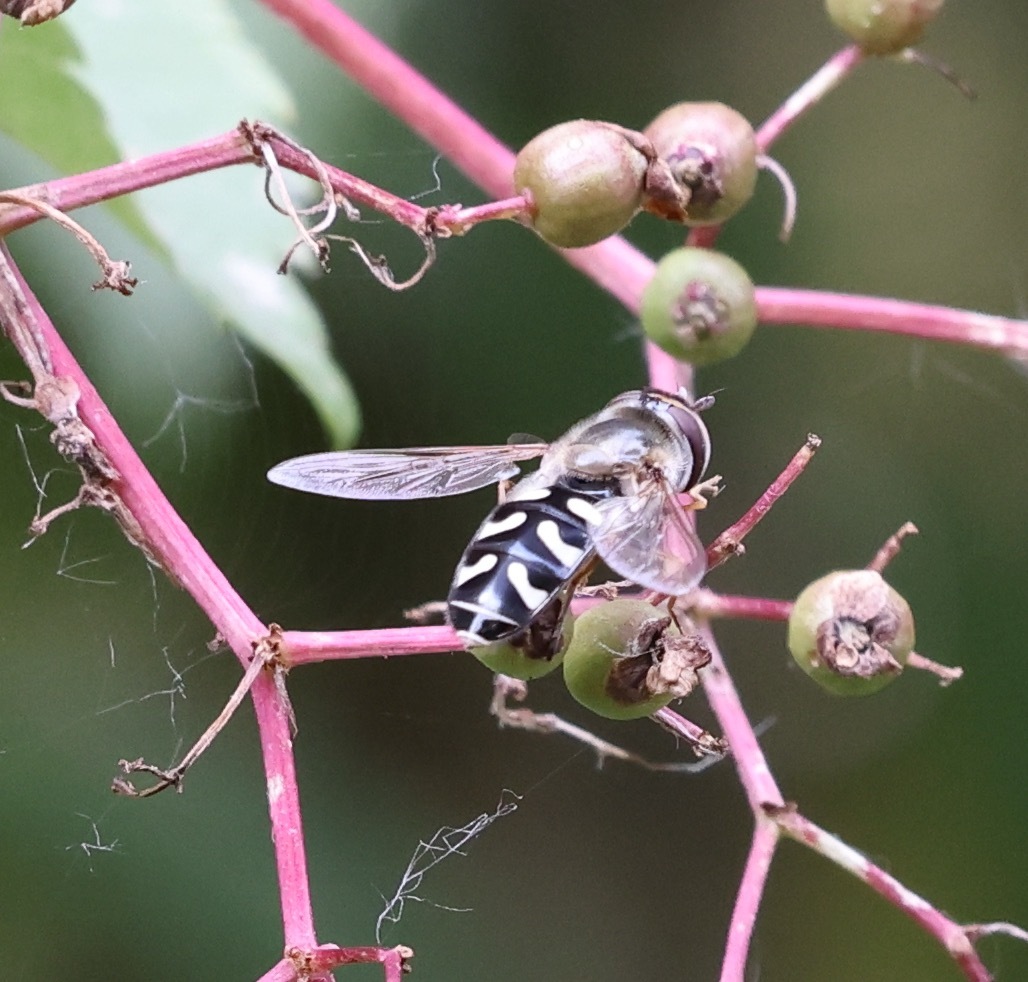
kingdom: Animalia
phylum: Arthropoda
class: Insecta
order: Diptera
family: Syrphidae
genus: Scaeva
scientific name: Scaeva pyrastri
